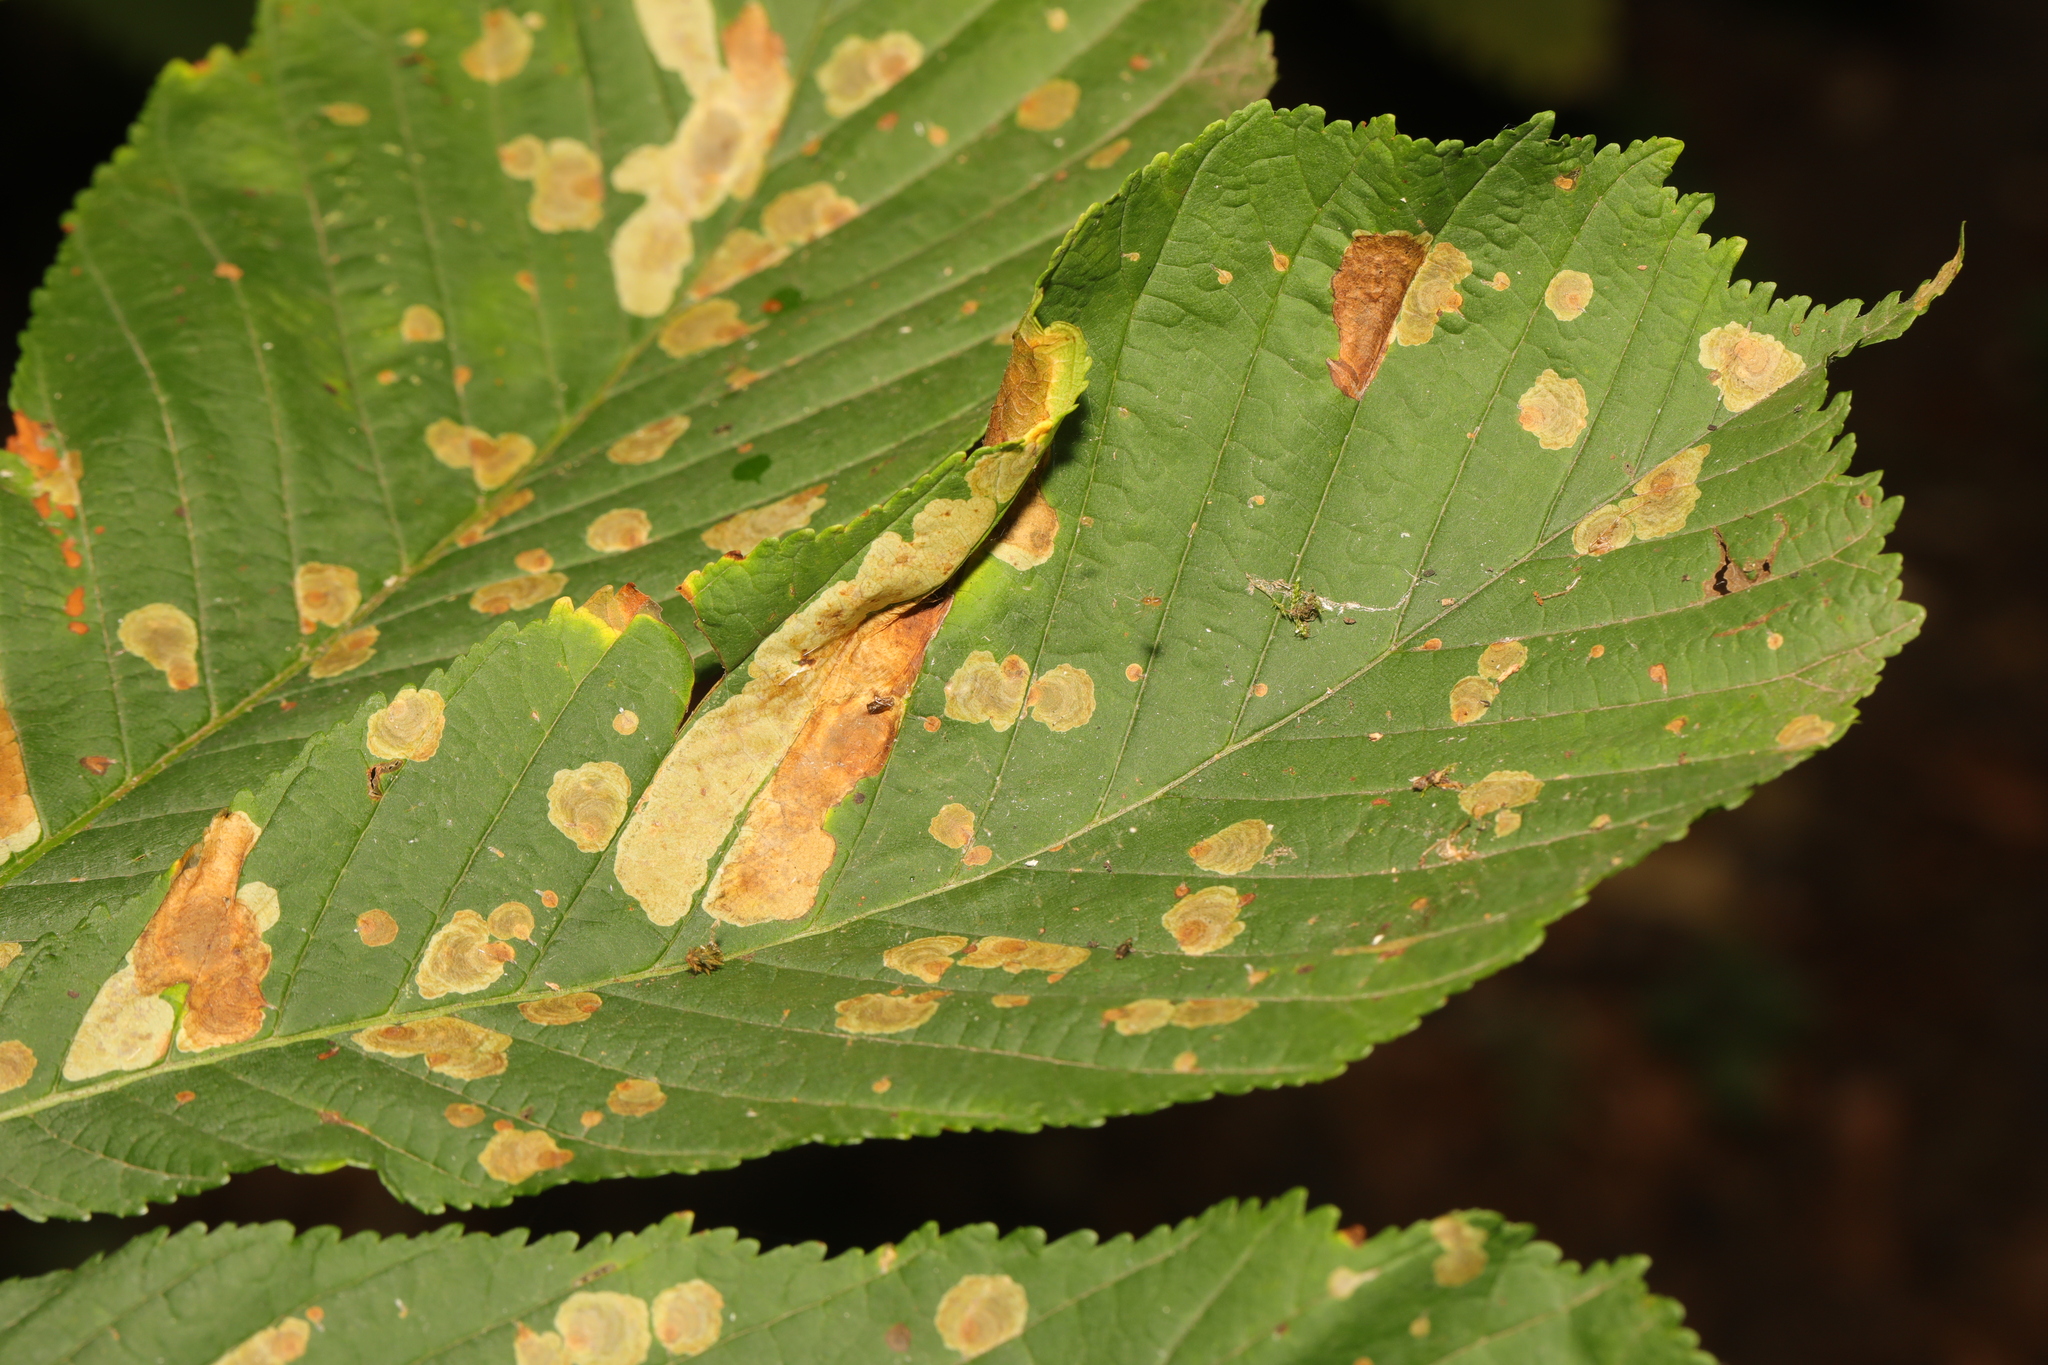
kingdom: Animalia
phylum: Arthropoda
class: Insecta
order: Lepidoptera
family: Gracillariidae
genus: Cameraria
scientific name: Cameraria ohridella
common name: Horse-chestnut leaf-miner
